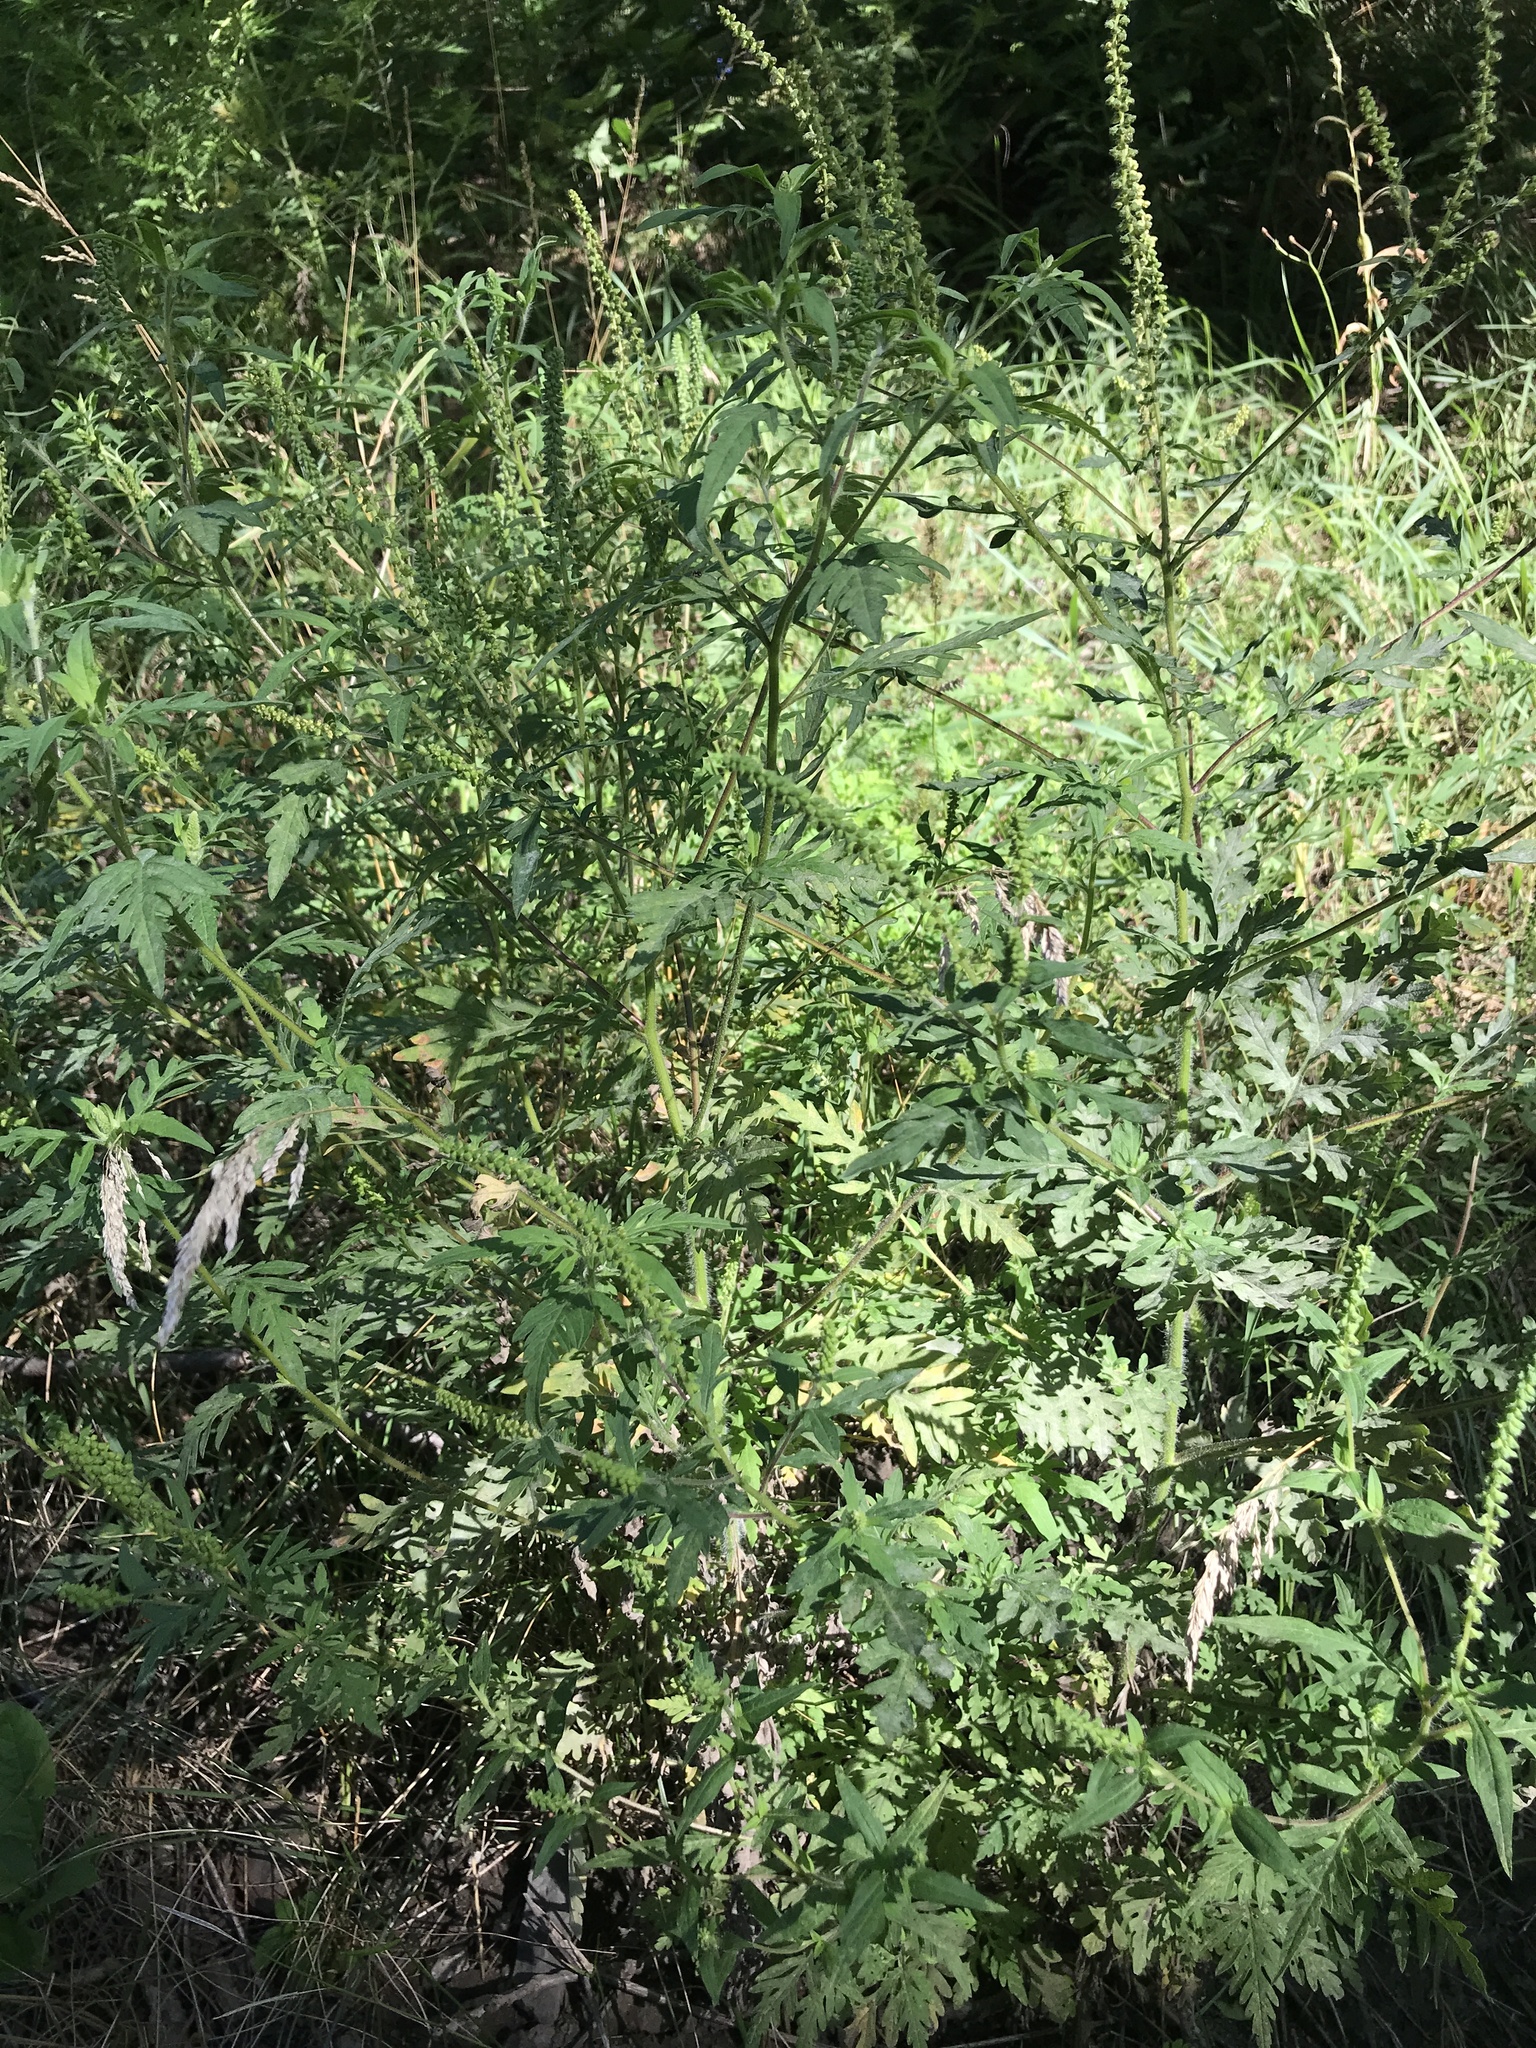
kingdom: Plantae
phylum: Tracheophyta
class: Magnoliopsida
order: Asterales
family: Asteraceae
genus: Ambrosia
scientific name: Ambrosia artemisiifolia
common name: Annual ragweed
